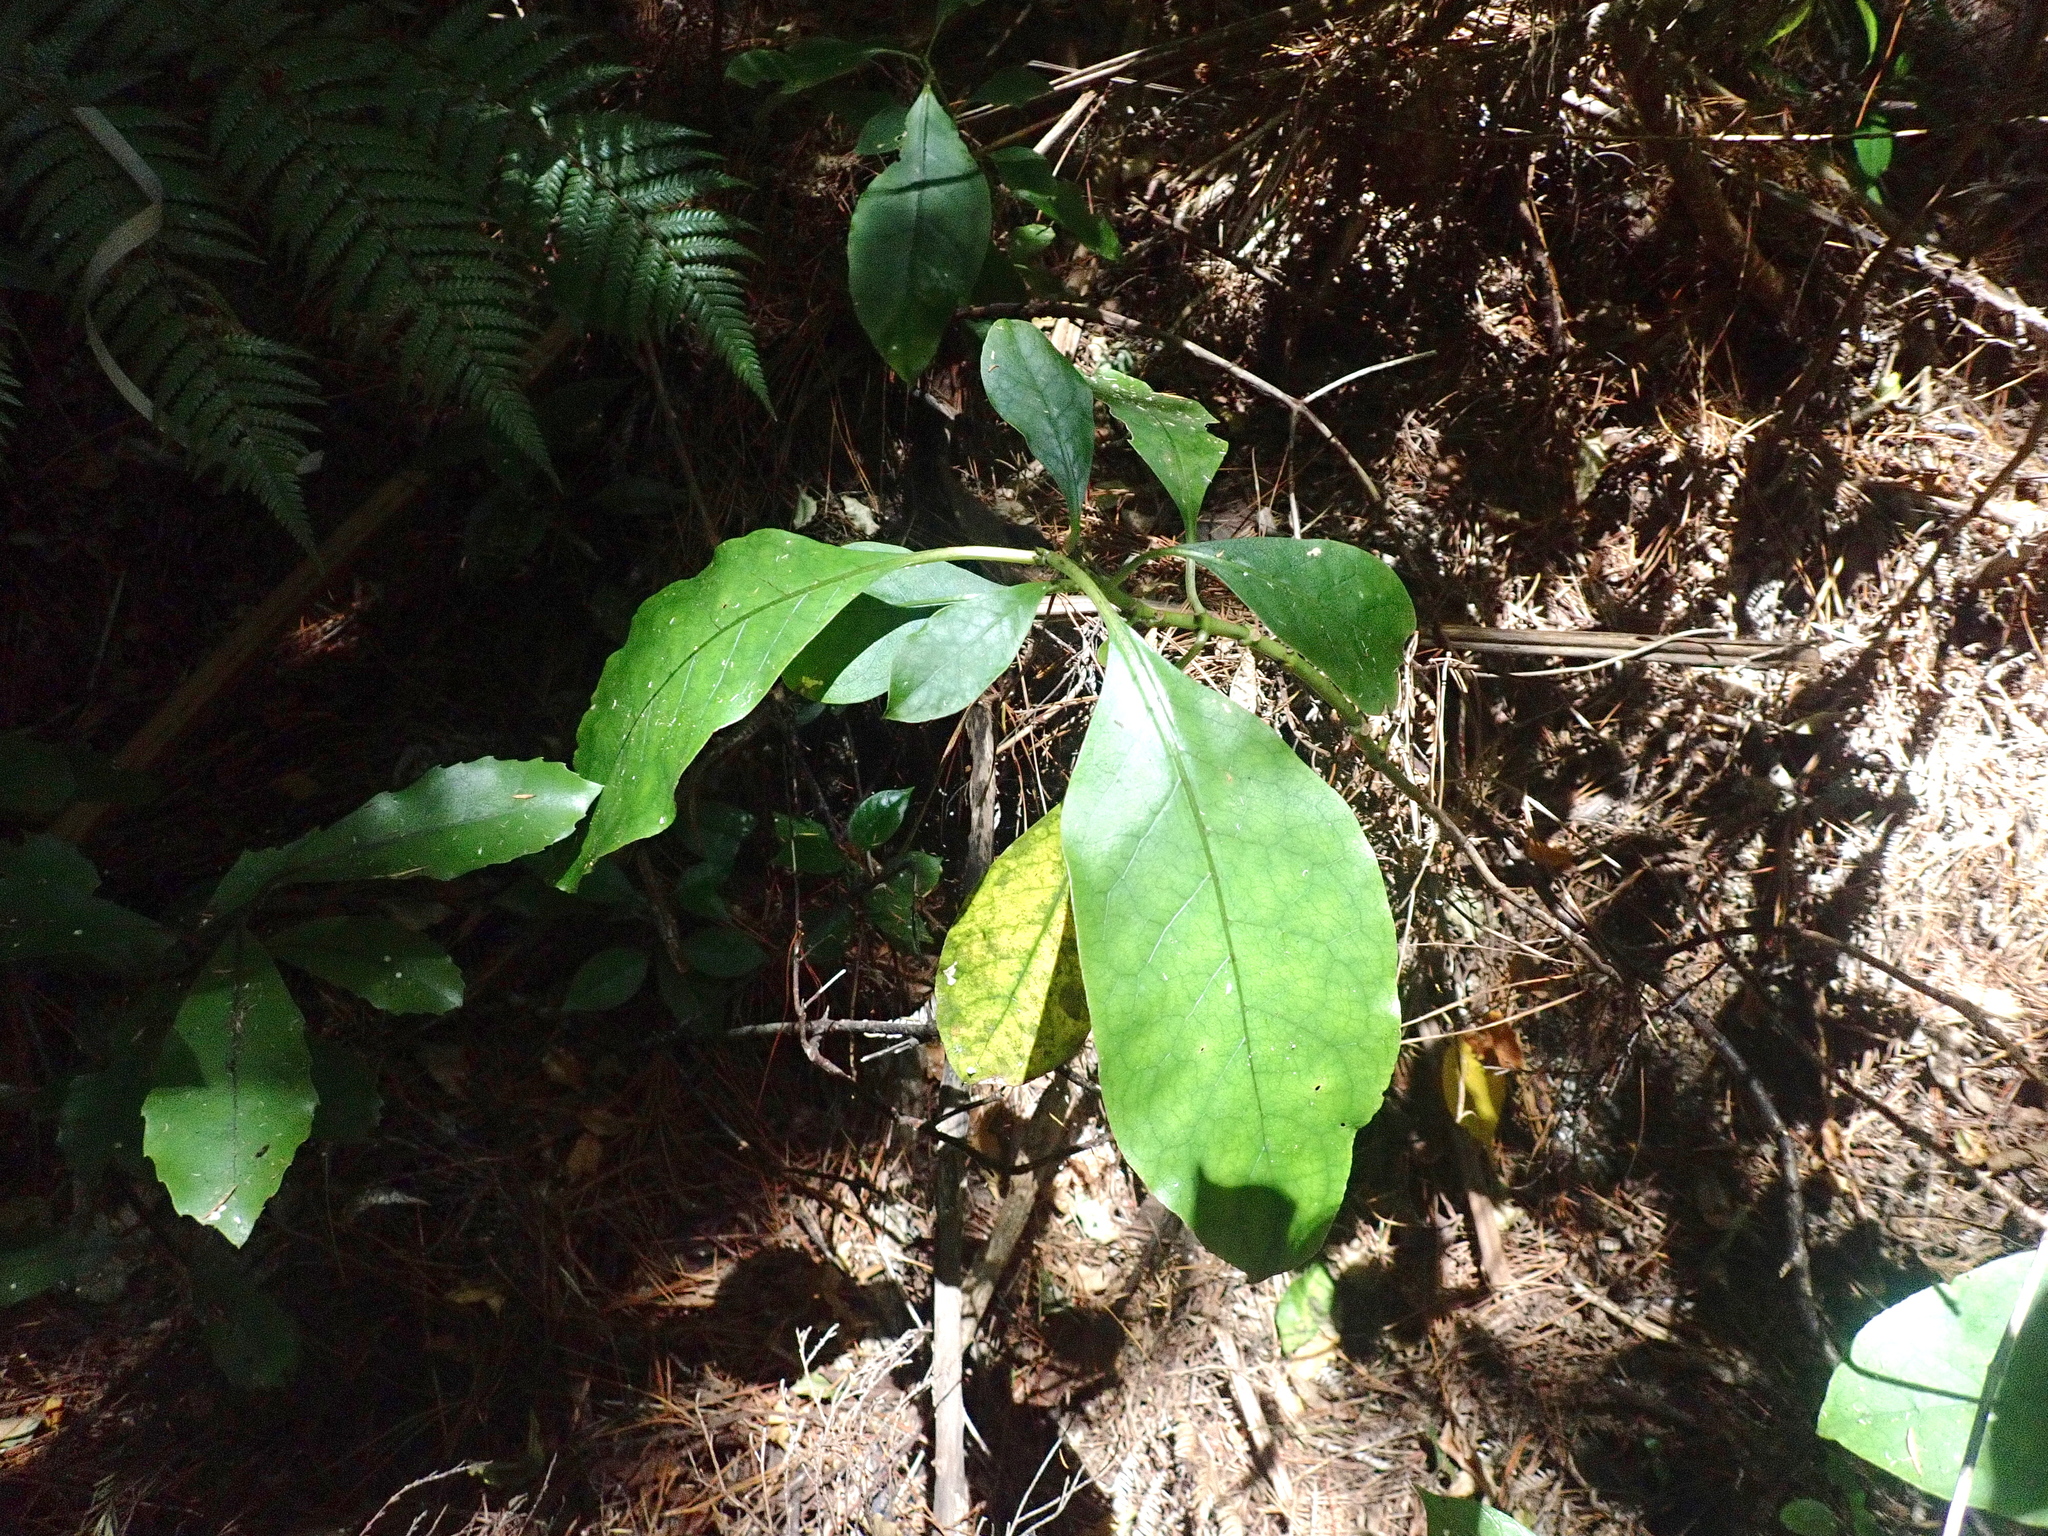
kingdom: Plantae
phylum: Tracheophyta
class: Magnoliopsida
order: Gentianales
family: Rubiaceae
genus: Coprosma
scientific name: Coprosma autumnalis
